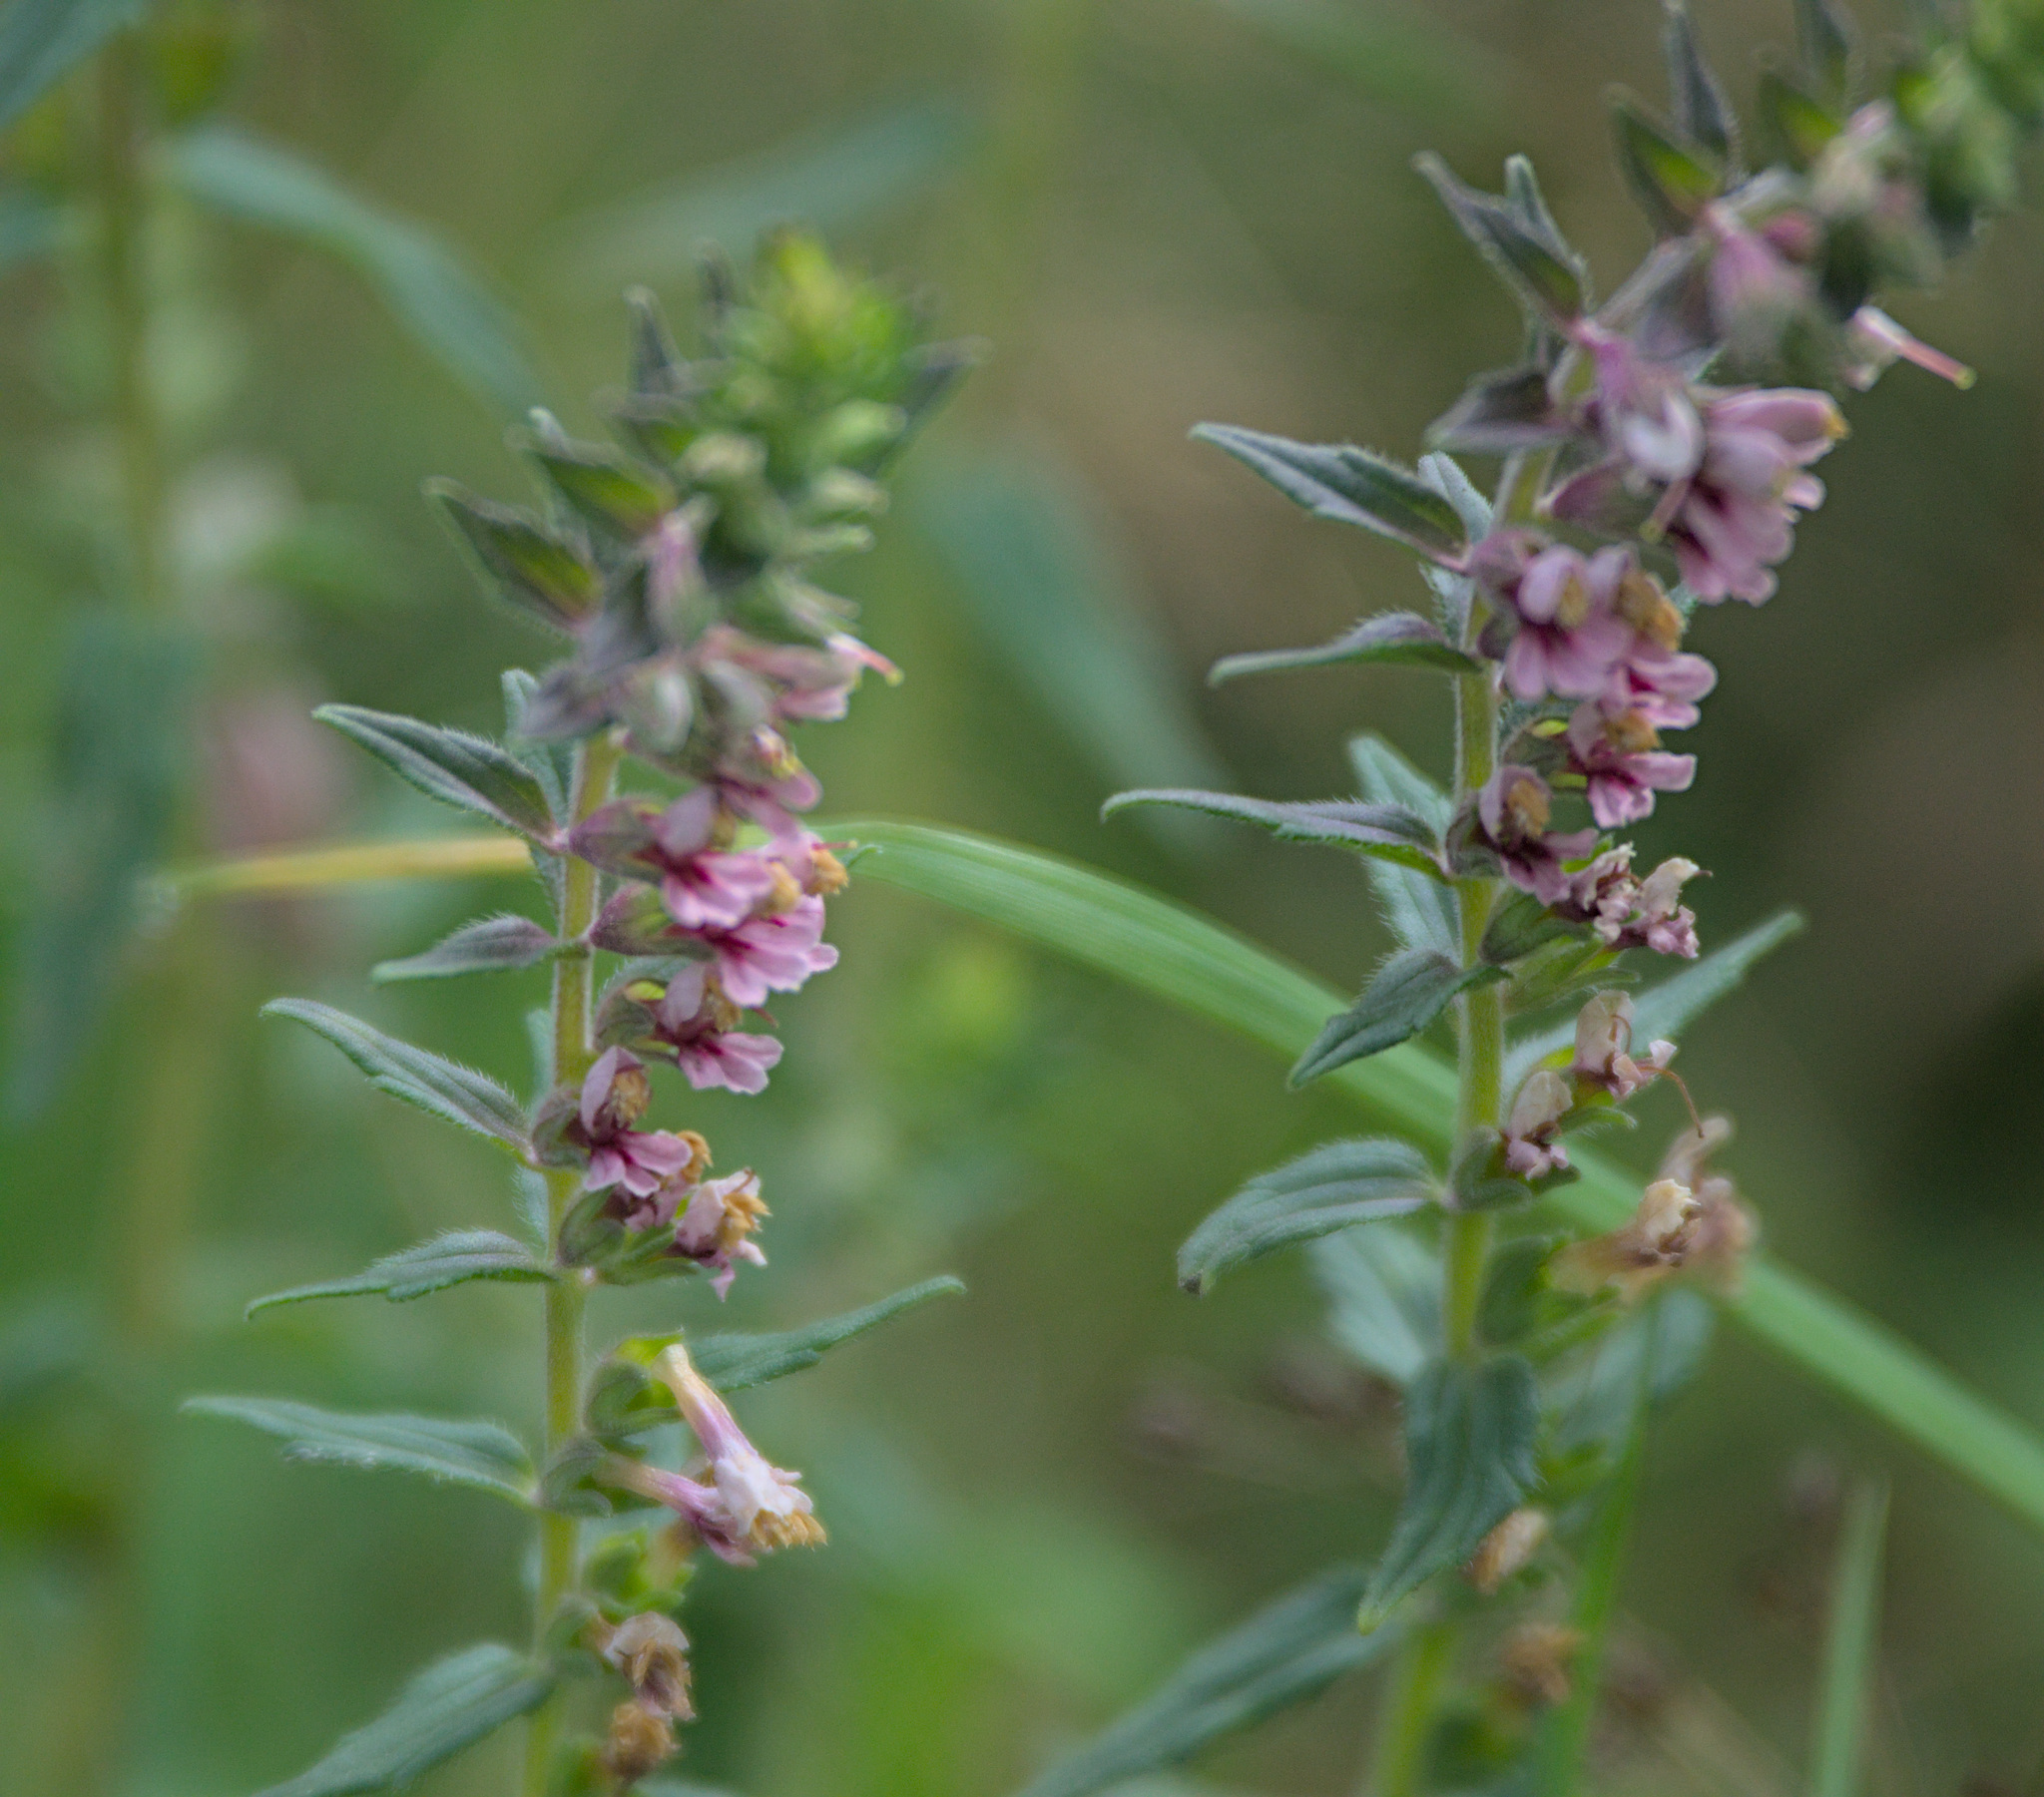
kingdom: Plantae
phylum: Tracheophyta
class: Magnoliopsida
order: Lamiales
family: Orobanchaceae
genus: Odontites
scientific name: Odontites vulgaris
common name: Broomrape
